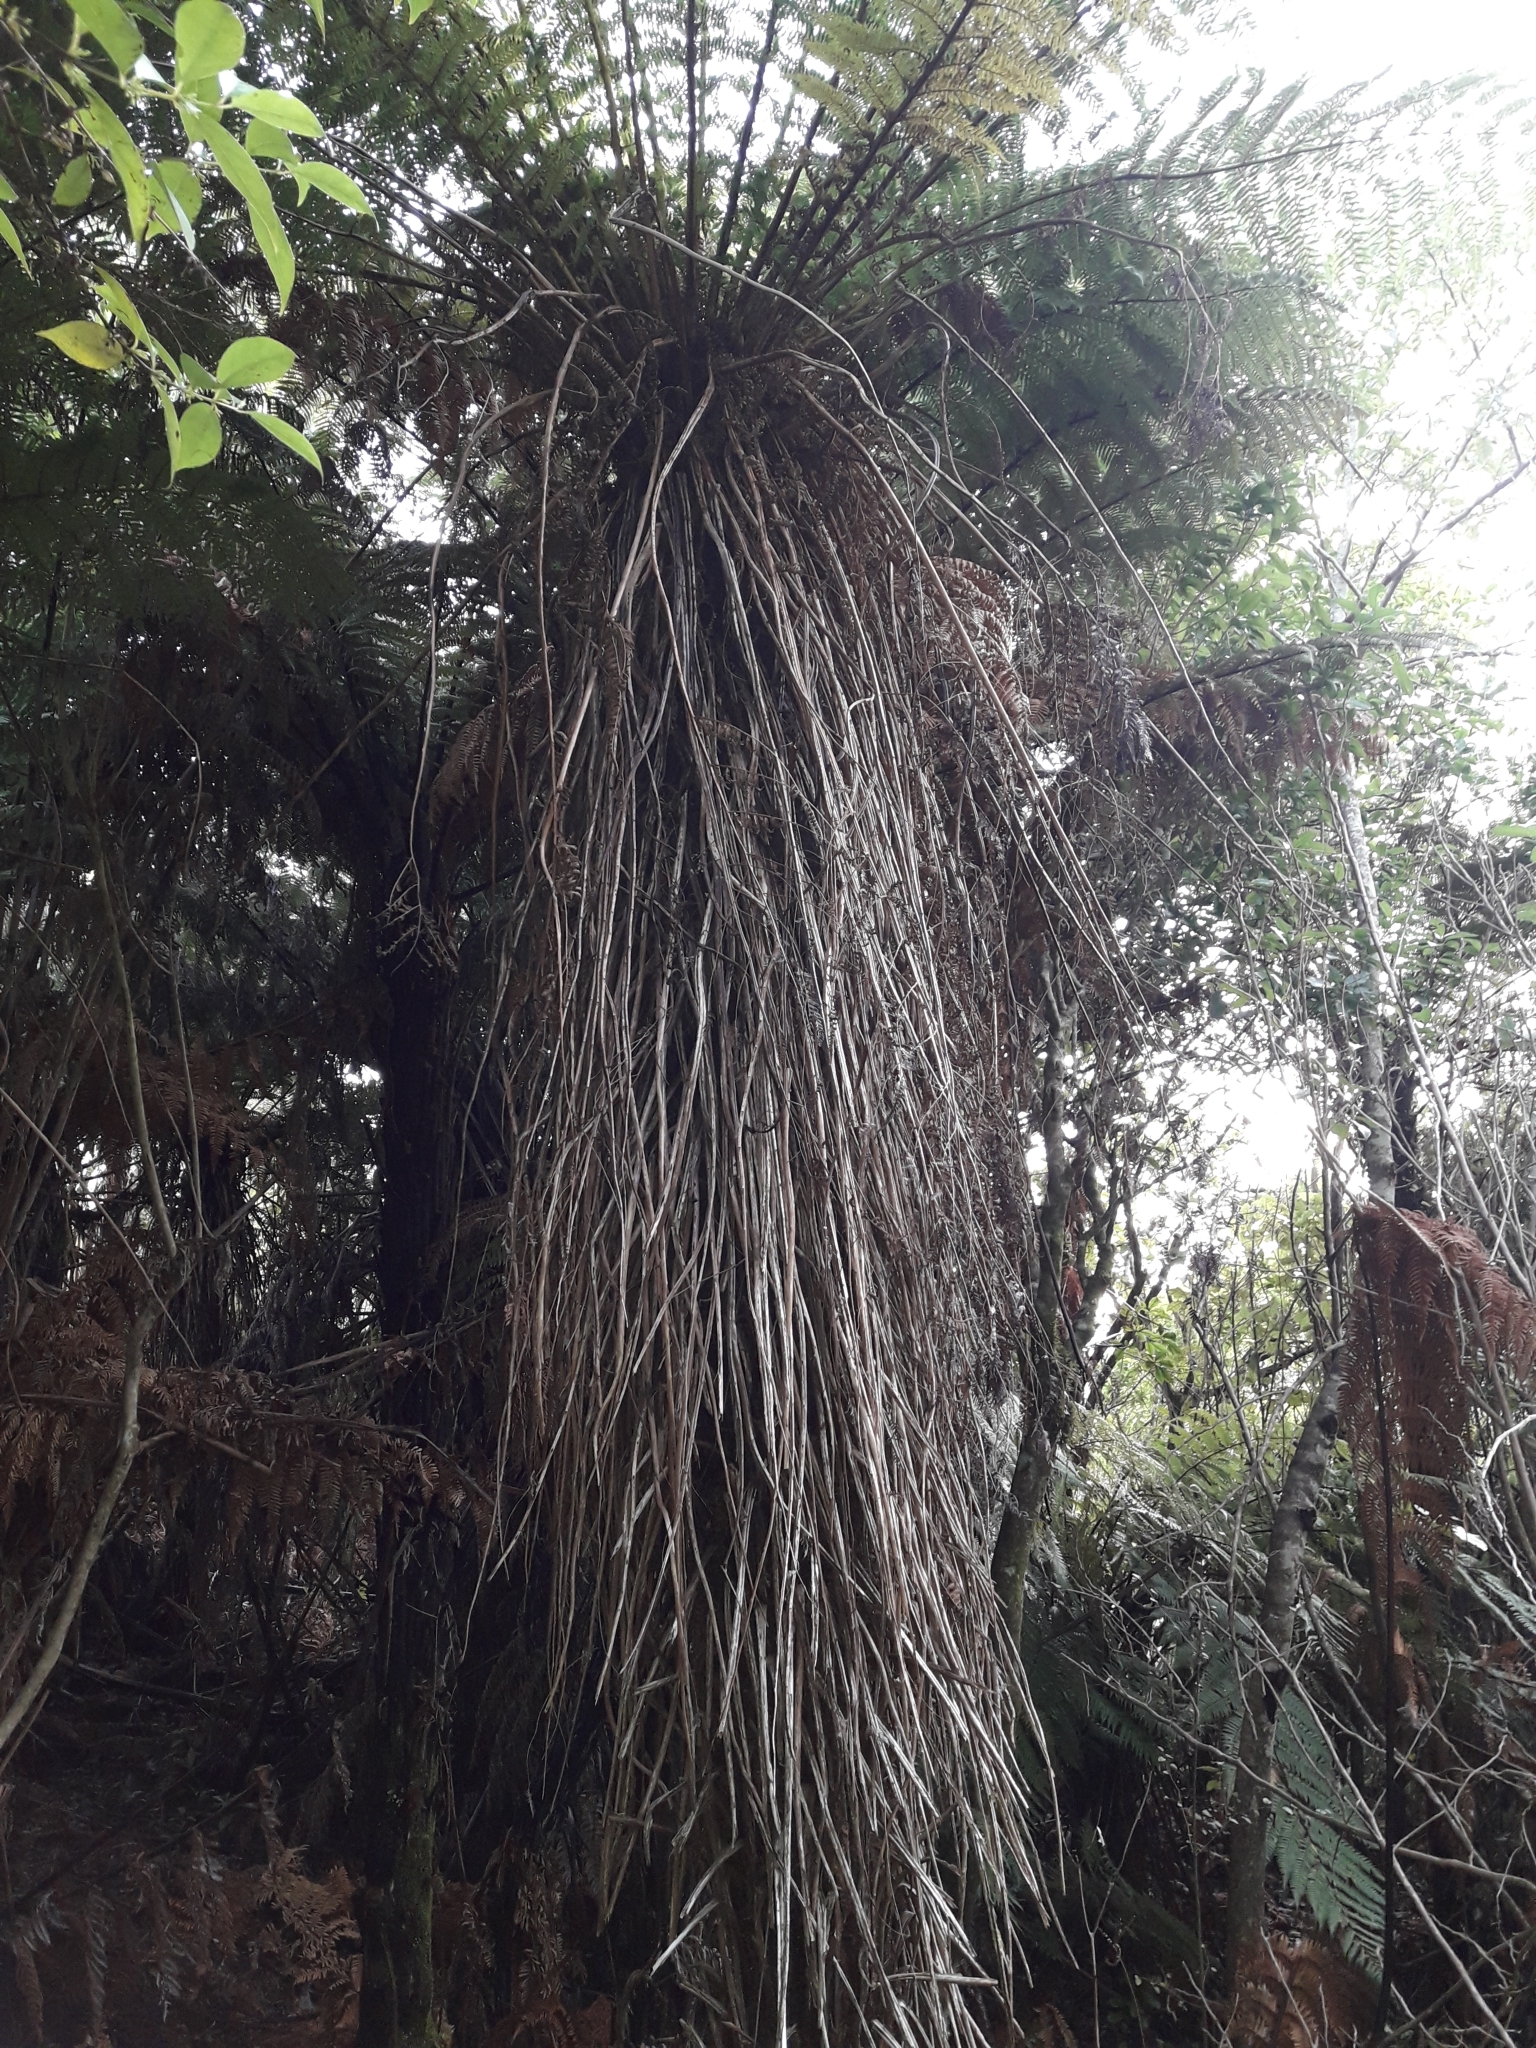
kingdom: Plantae
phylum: Tracheophyta
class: Polypodiopsida
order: Cyatheales
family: Cyatheaceae
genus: Alsophila
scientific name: Alsophila smithii
